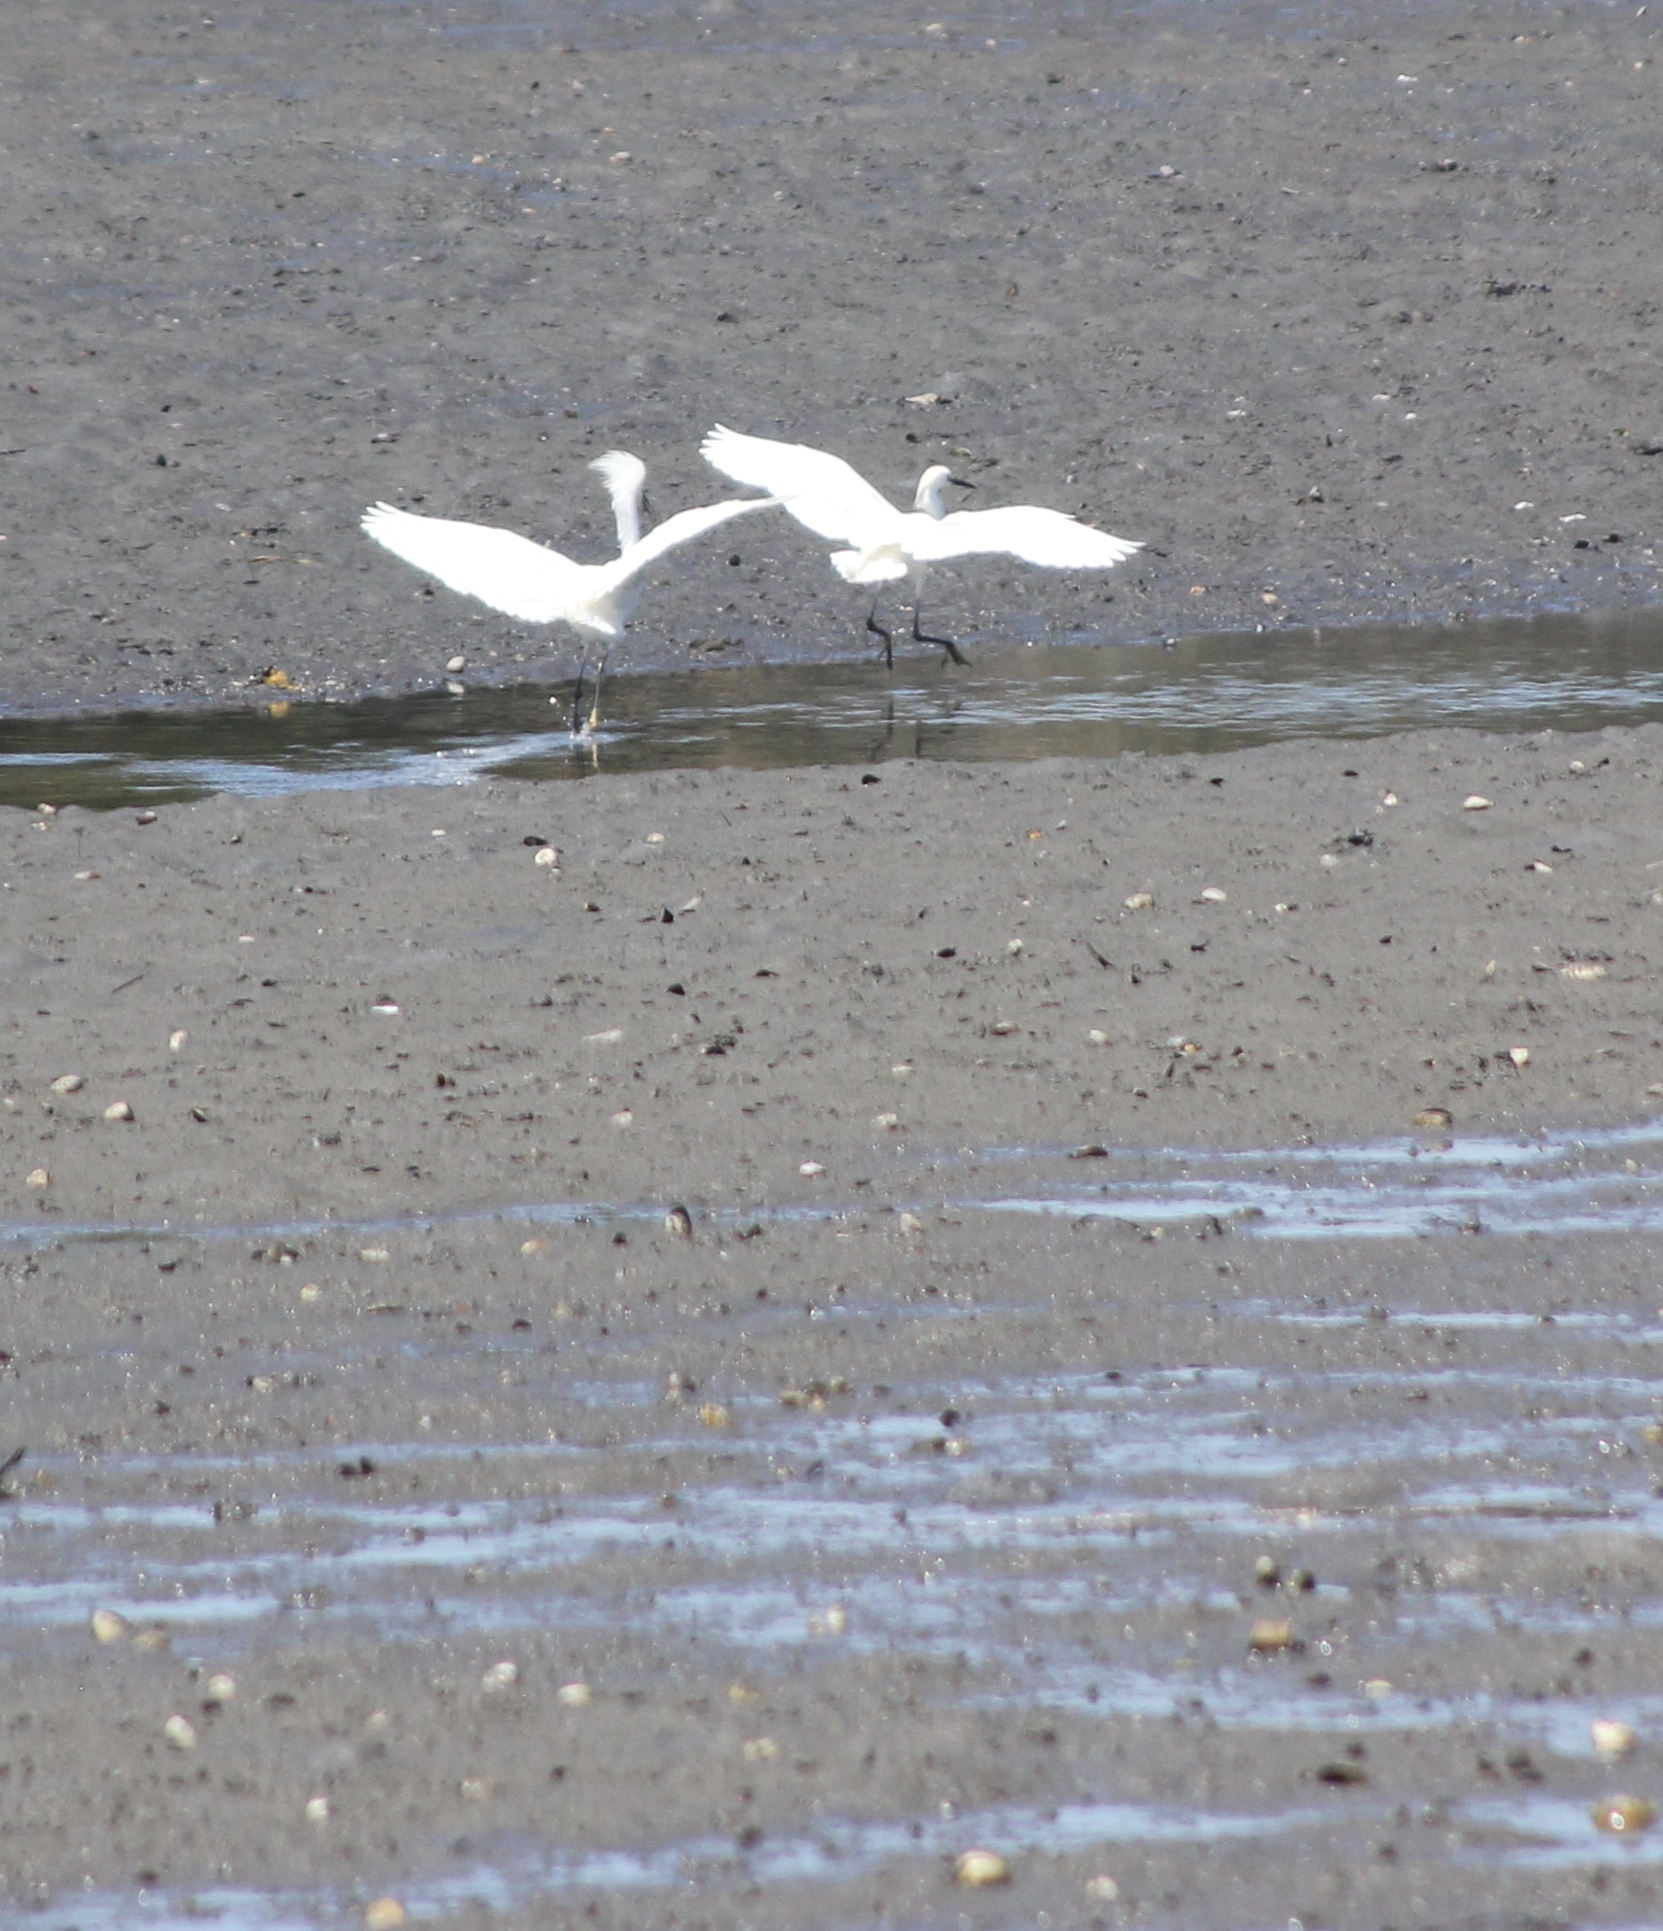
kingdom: Animalia
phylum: Chordata
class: Aves
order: Pelecaniformes
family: Ardeidae
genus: Egretta
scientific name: Egretta thula
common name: Snowy egret
